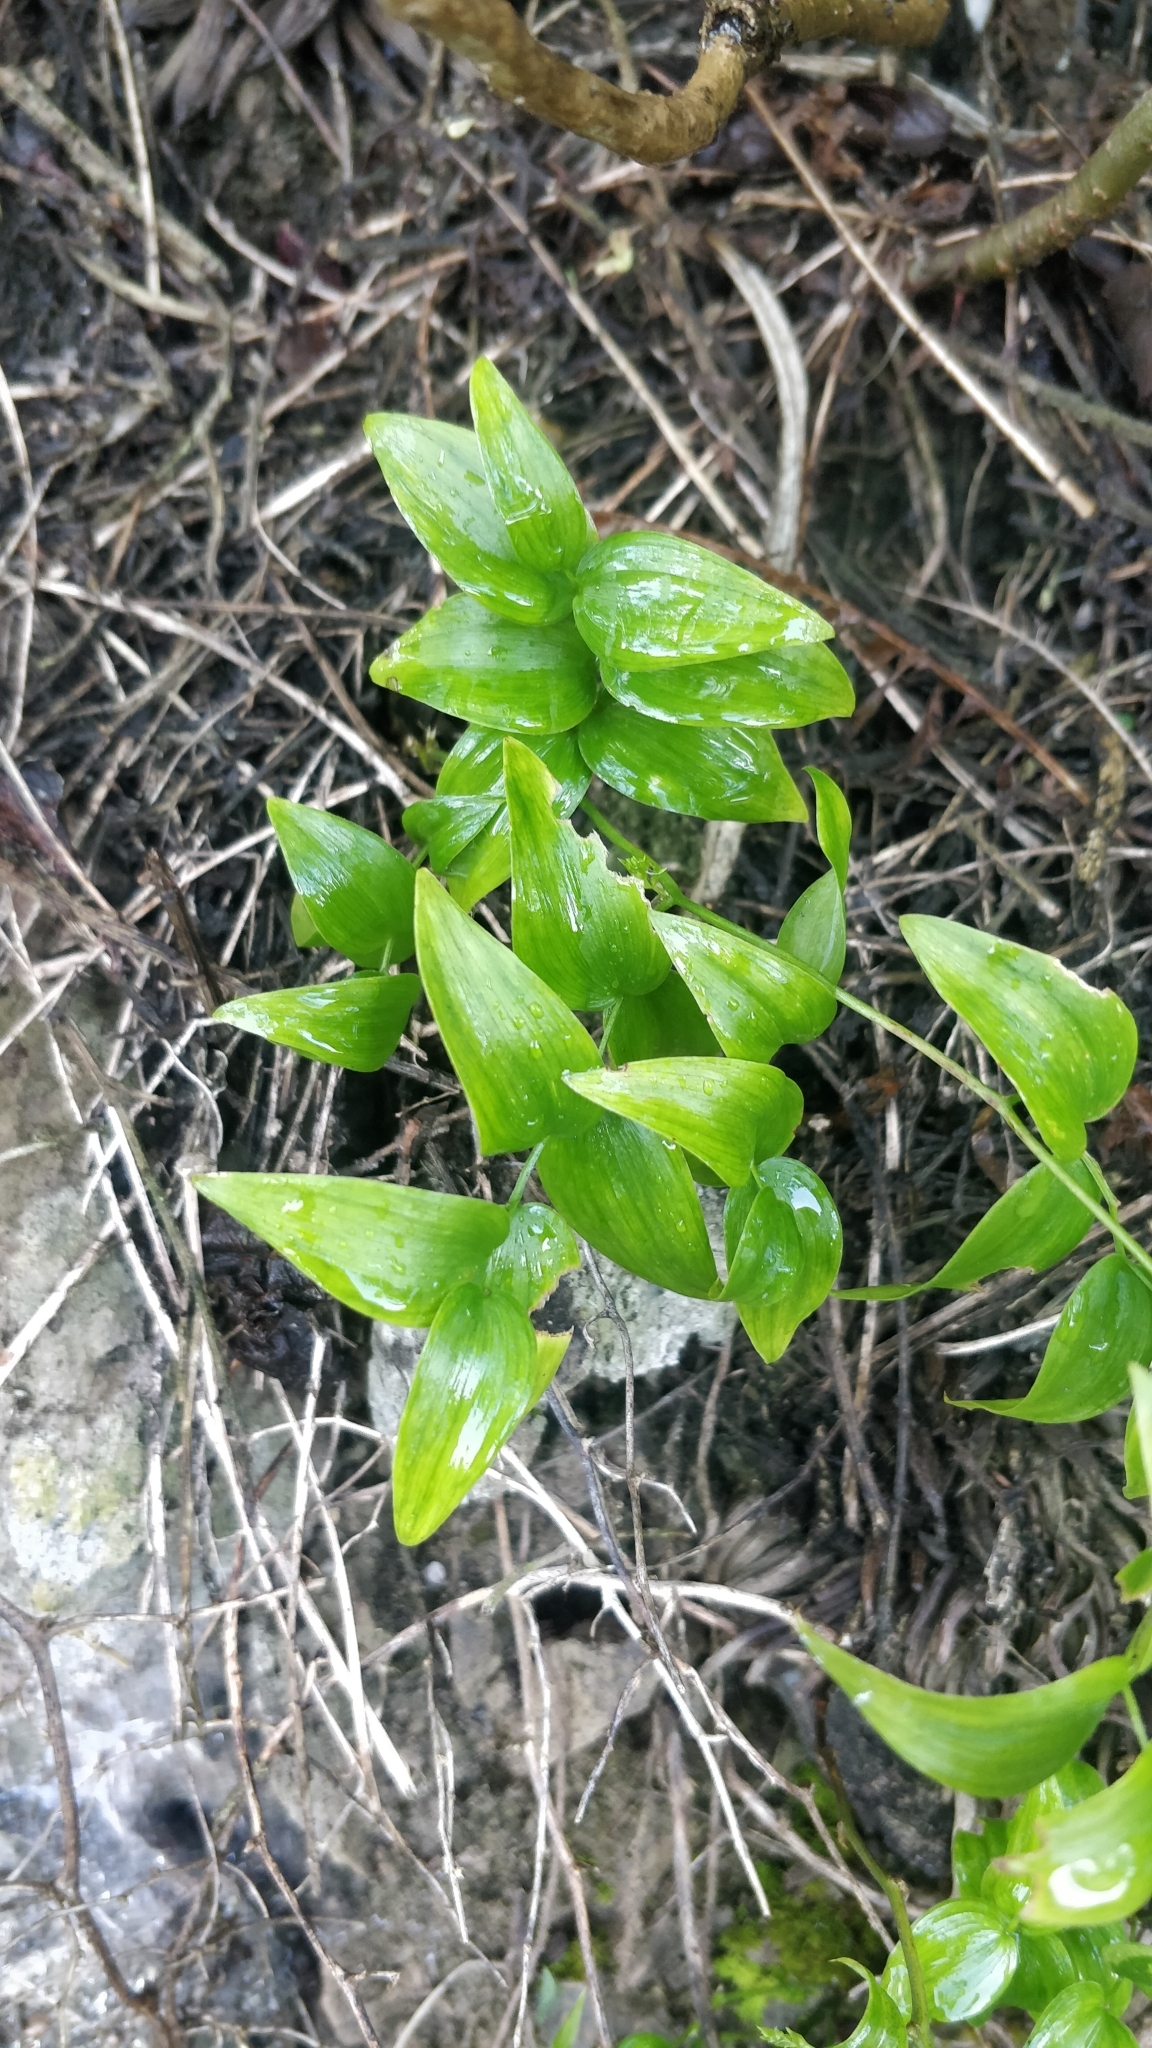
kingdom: Plantae
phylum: Tracheophyta
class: Liliopsida
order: Asparagales
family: Asparagaceae
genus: Asparagus
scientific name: Asparagus asparagoides
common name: African asparagus fern
